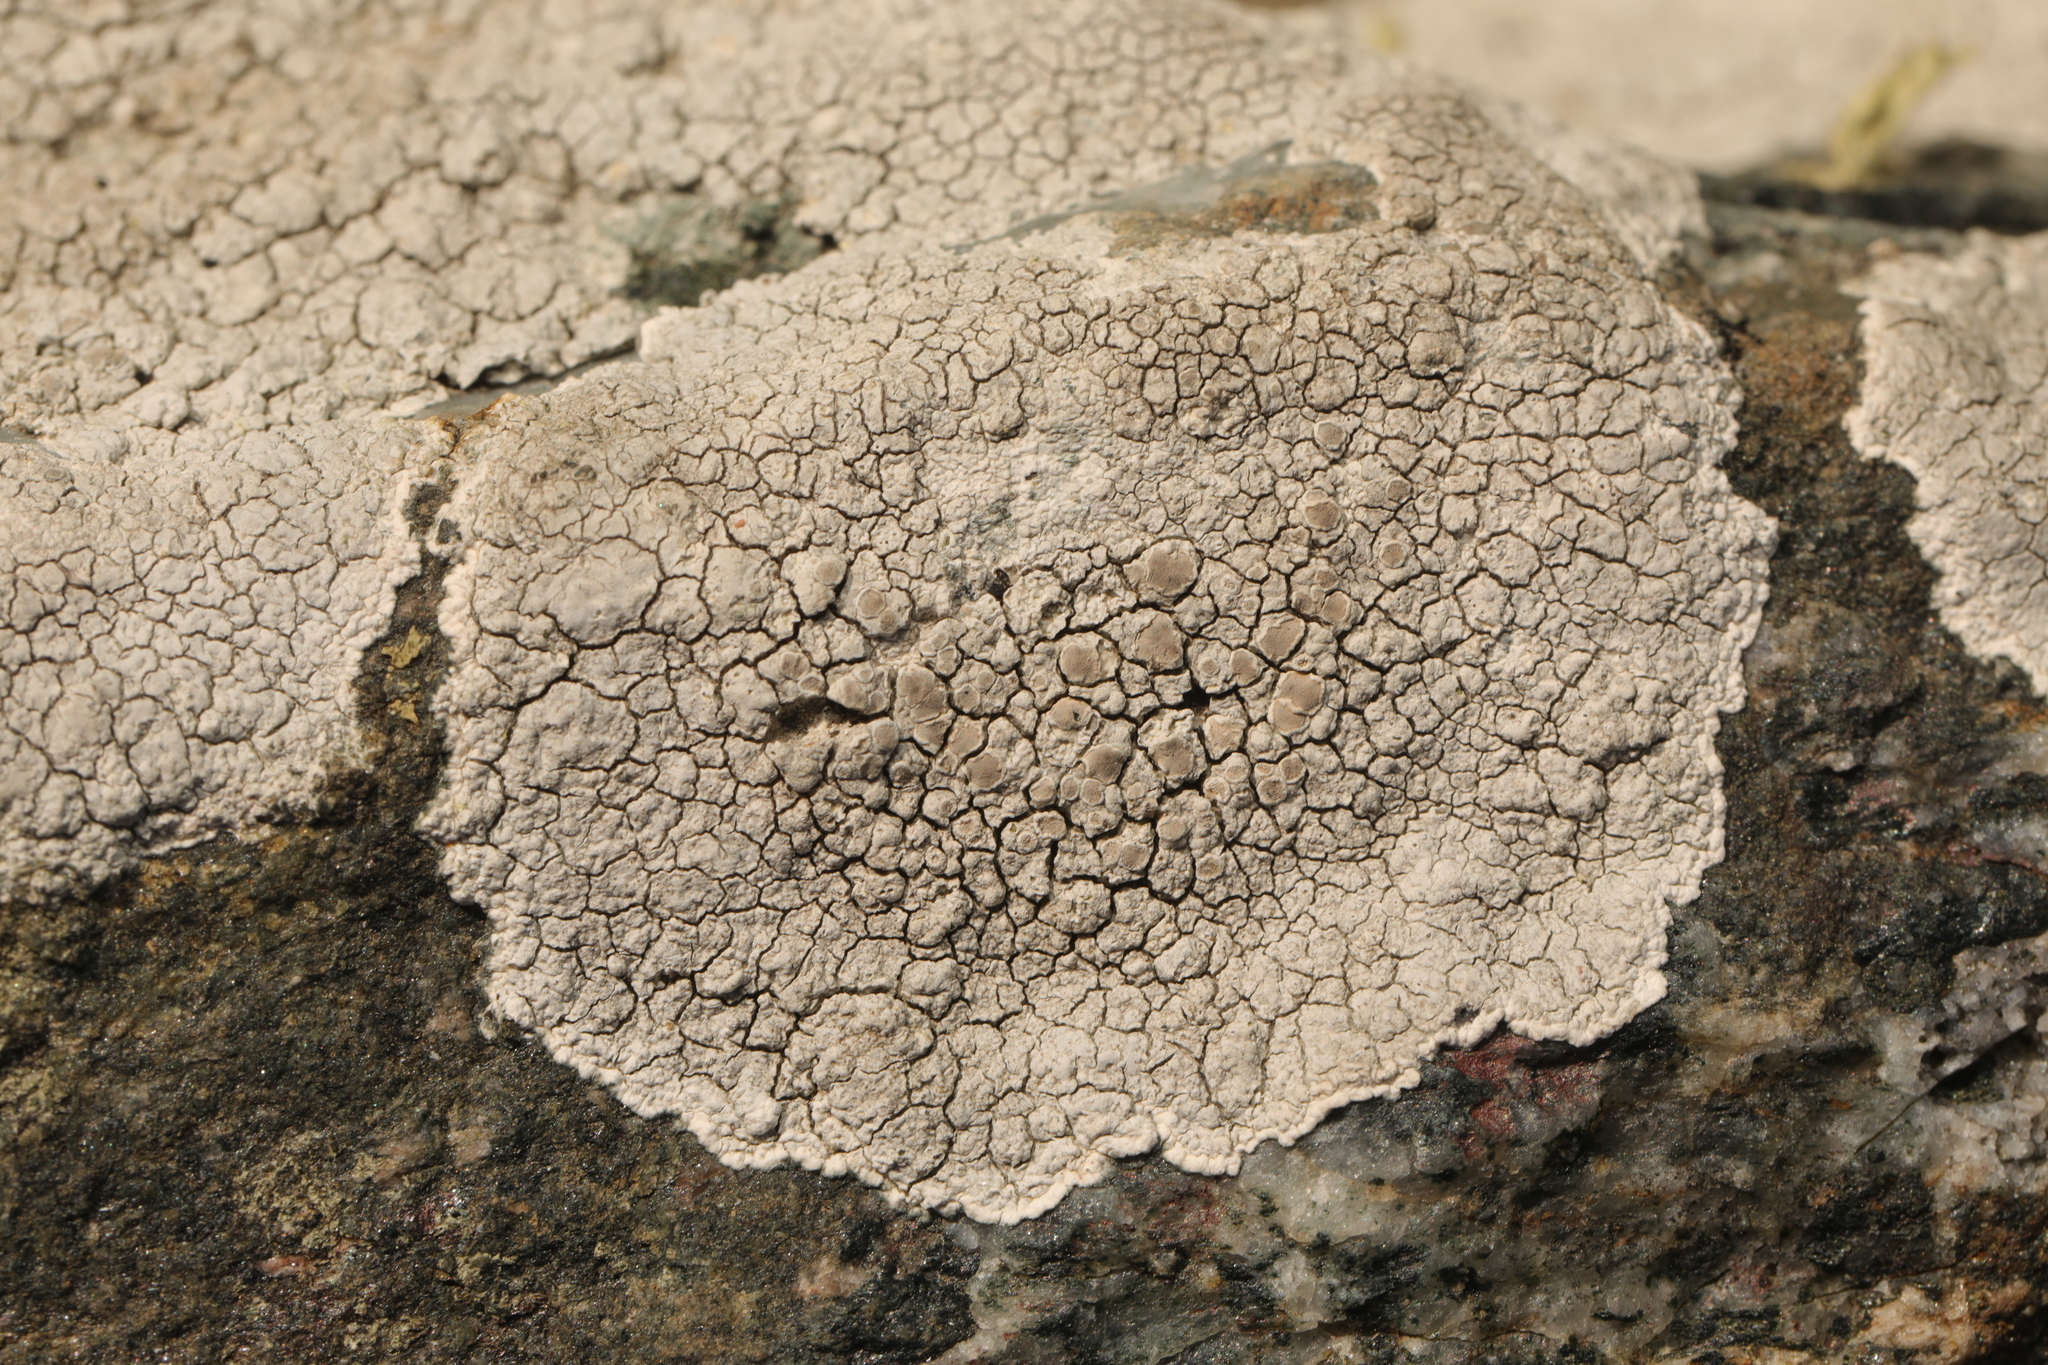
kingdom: Fungi
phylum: Ascomycota
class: Lecanoromycetes
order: Lecanorales
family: Lecanoraceae
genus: Glaucomaria
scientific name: Glaucomaria rupicola
